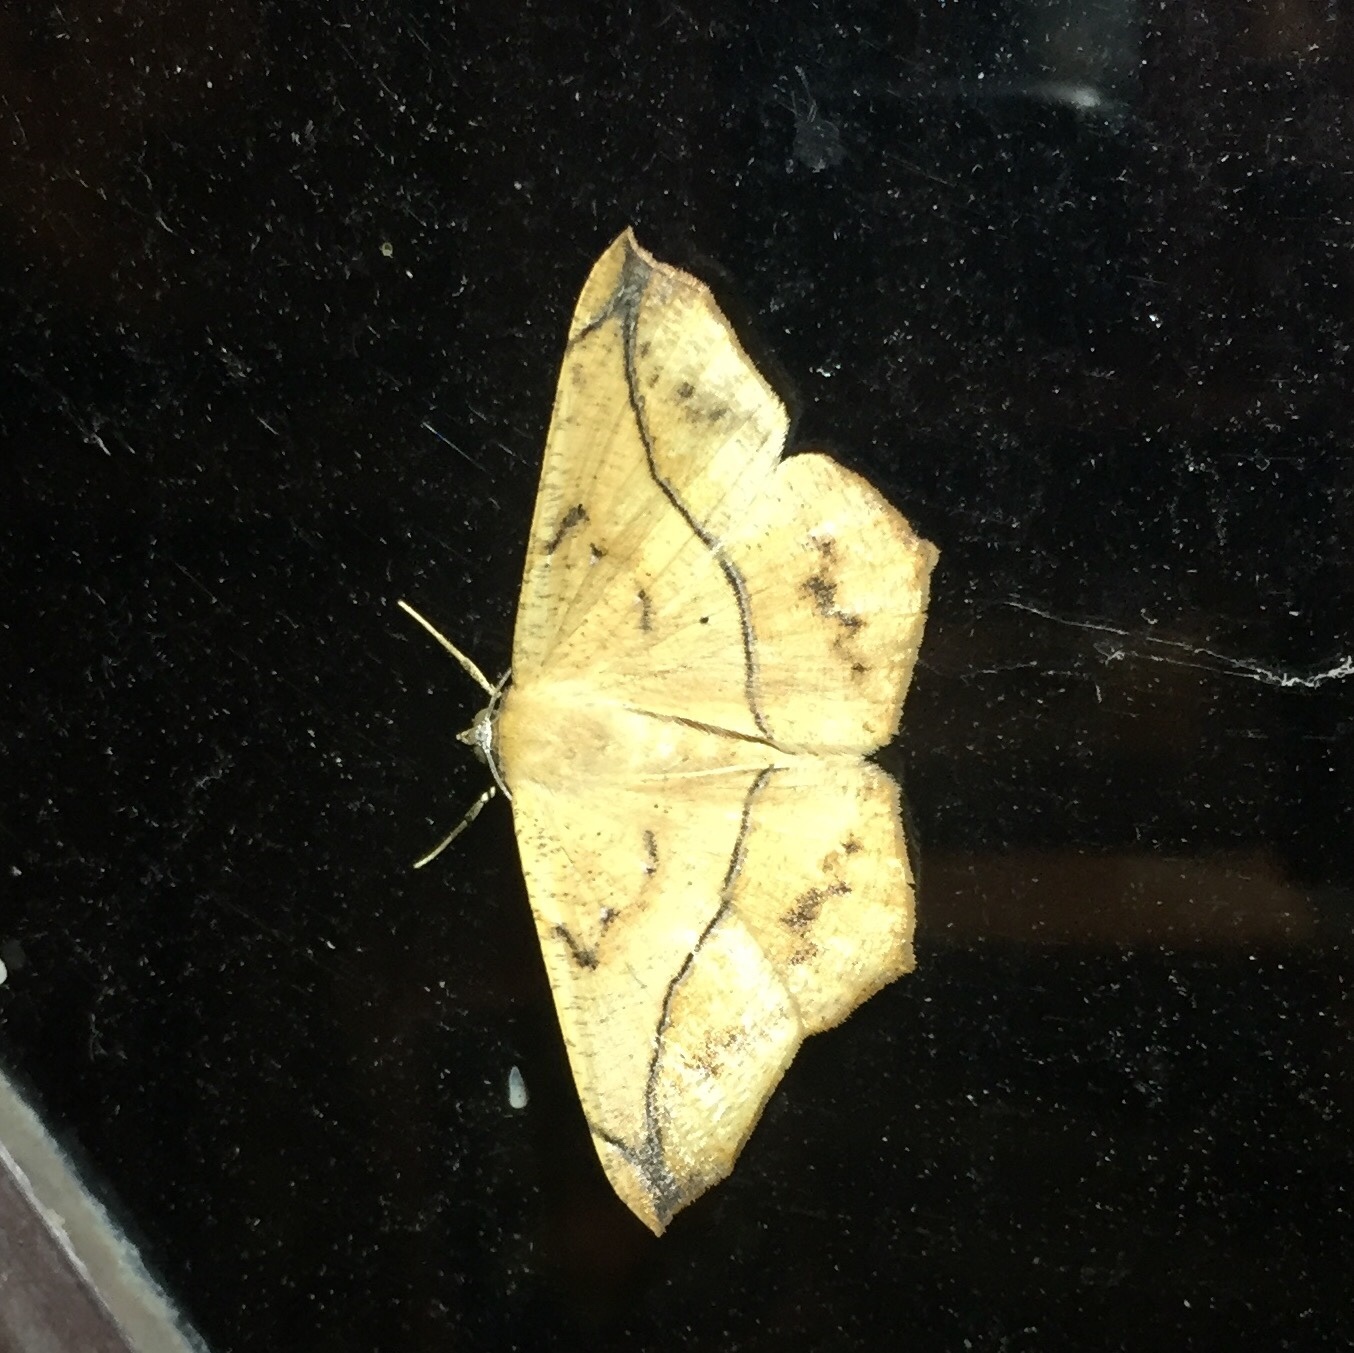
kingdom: Animalia
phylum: Arthropoda
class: Insecta
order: Lepidoptera
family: Geometridae
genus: Prochoerodes
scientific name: Prochoerodes lineola
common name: Large maple spanworm
